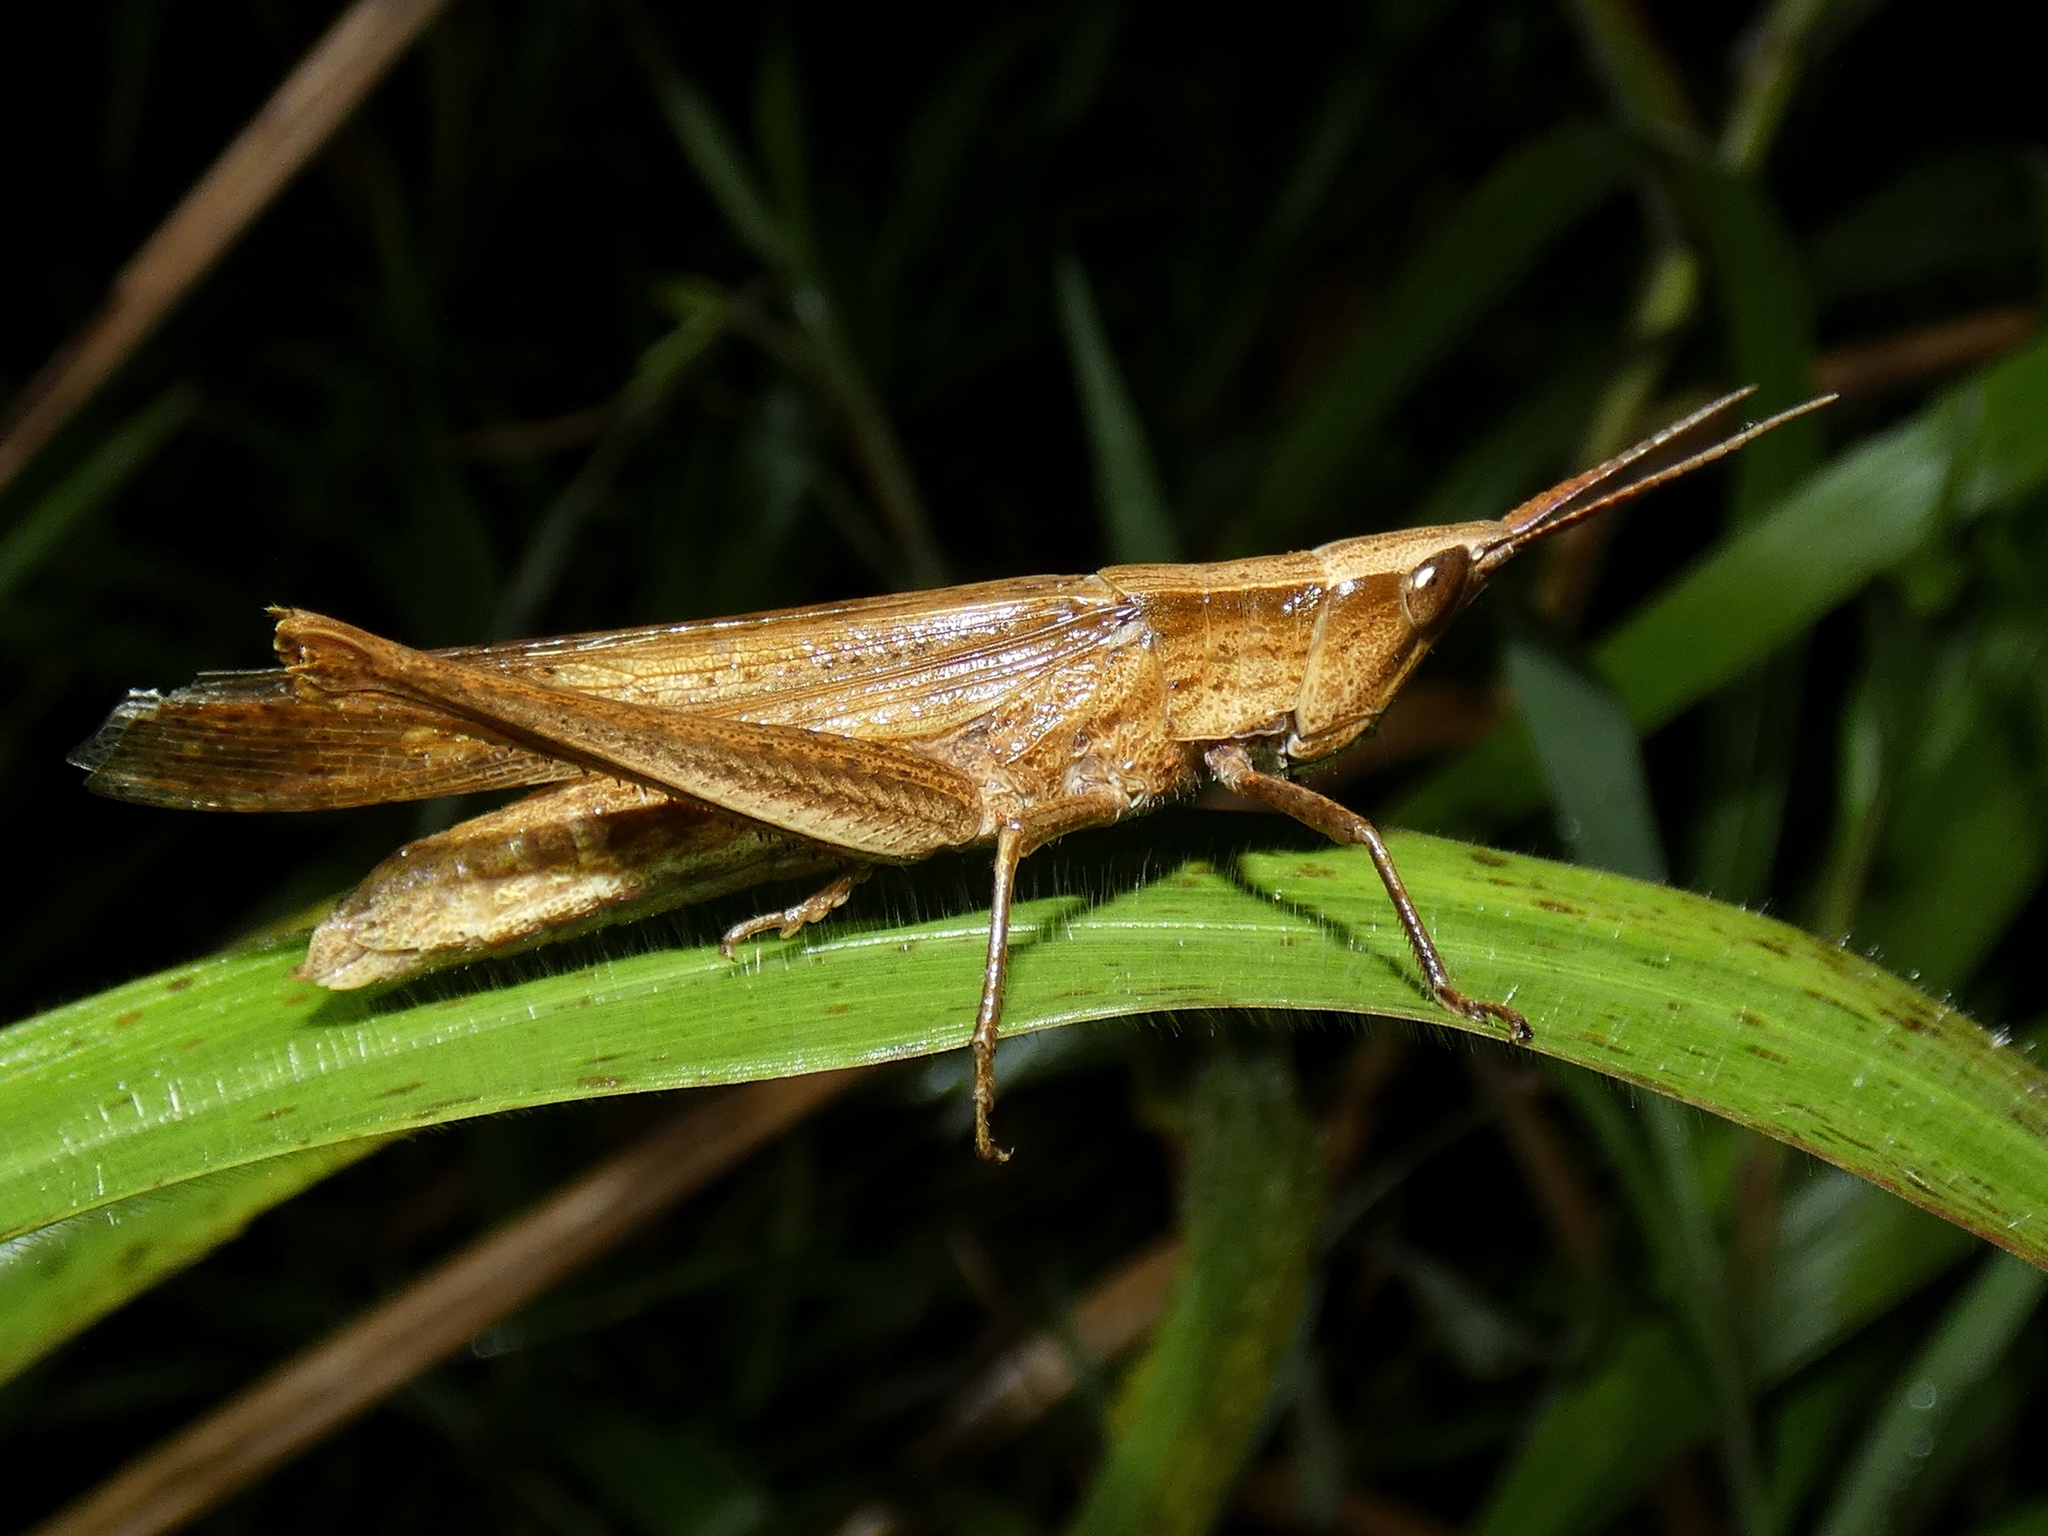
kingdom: Animalia
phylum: Arthropoda
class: Insecta
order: Orthoptera
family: Acrididae
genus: Metaleptea
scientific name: Metaleptea adspersa
